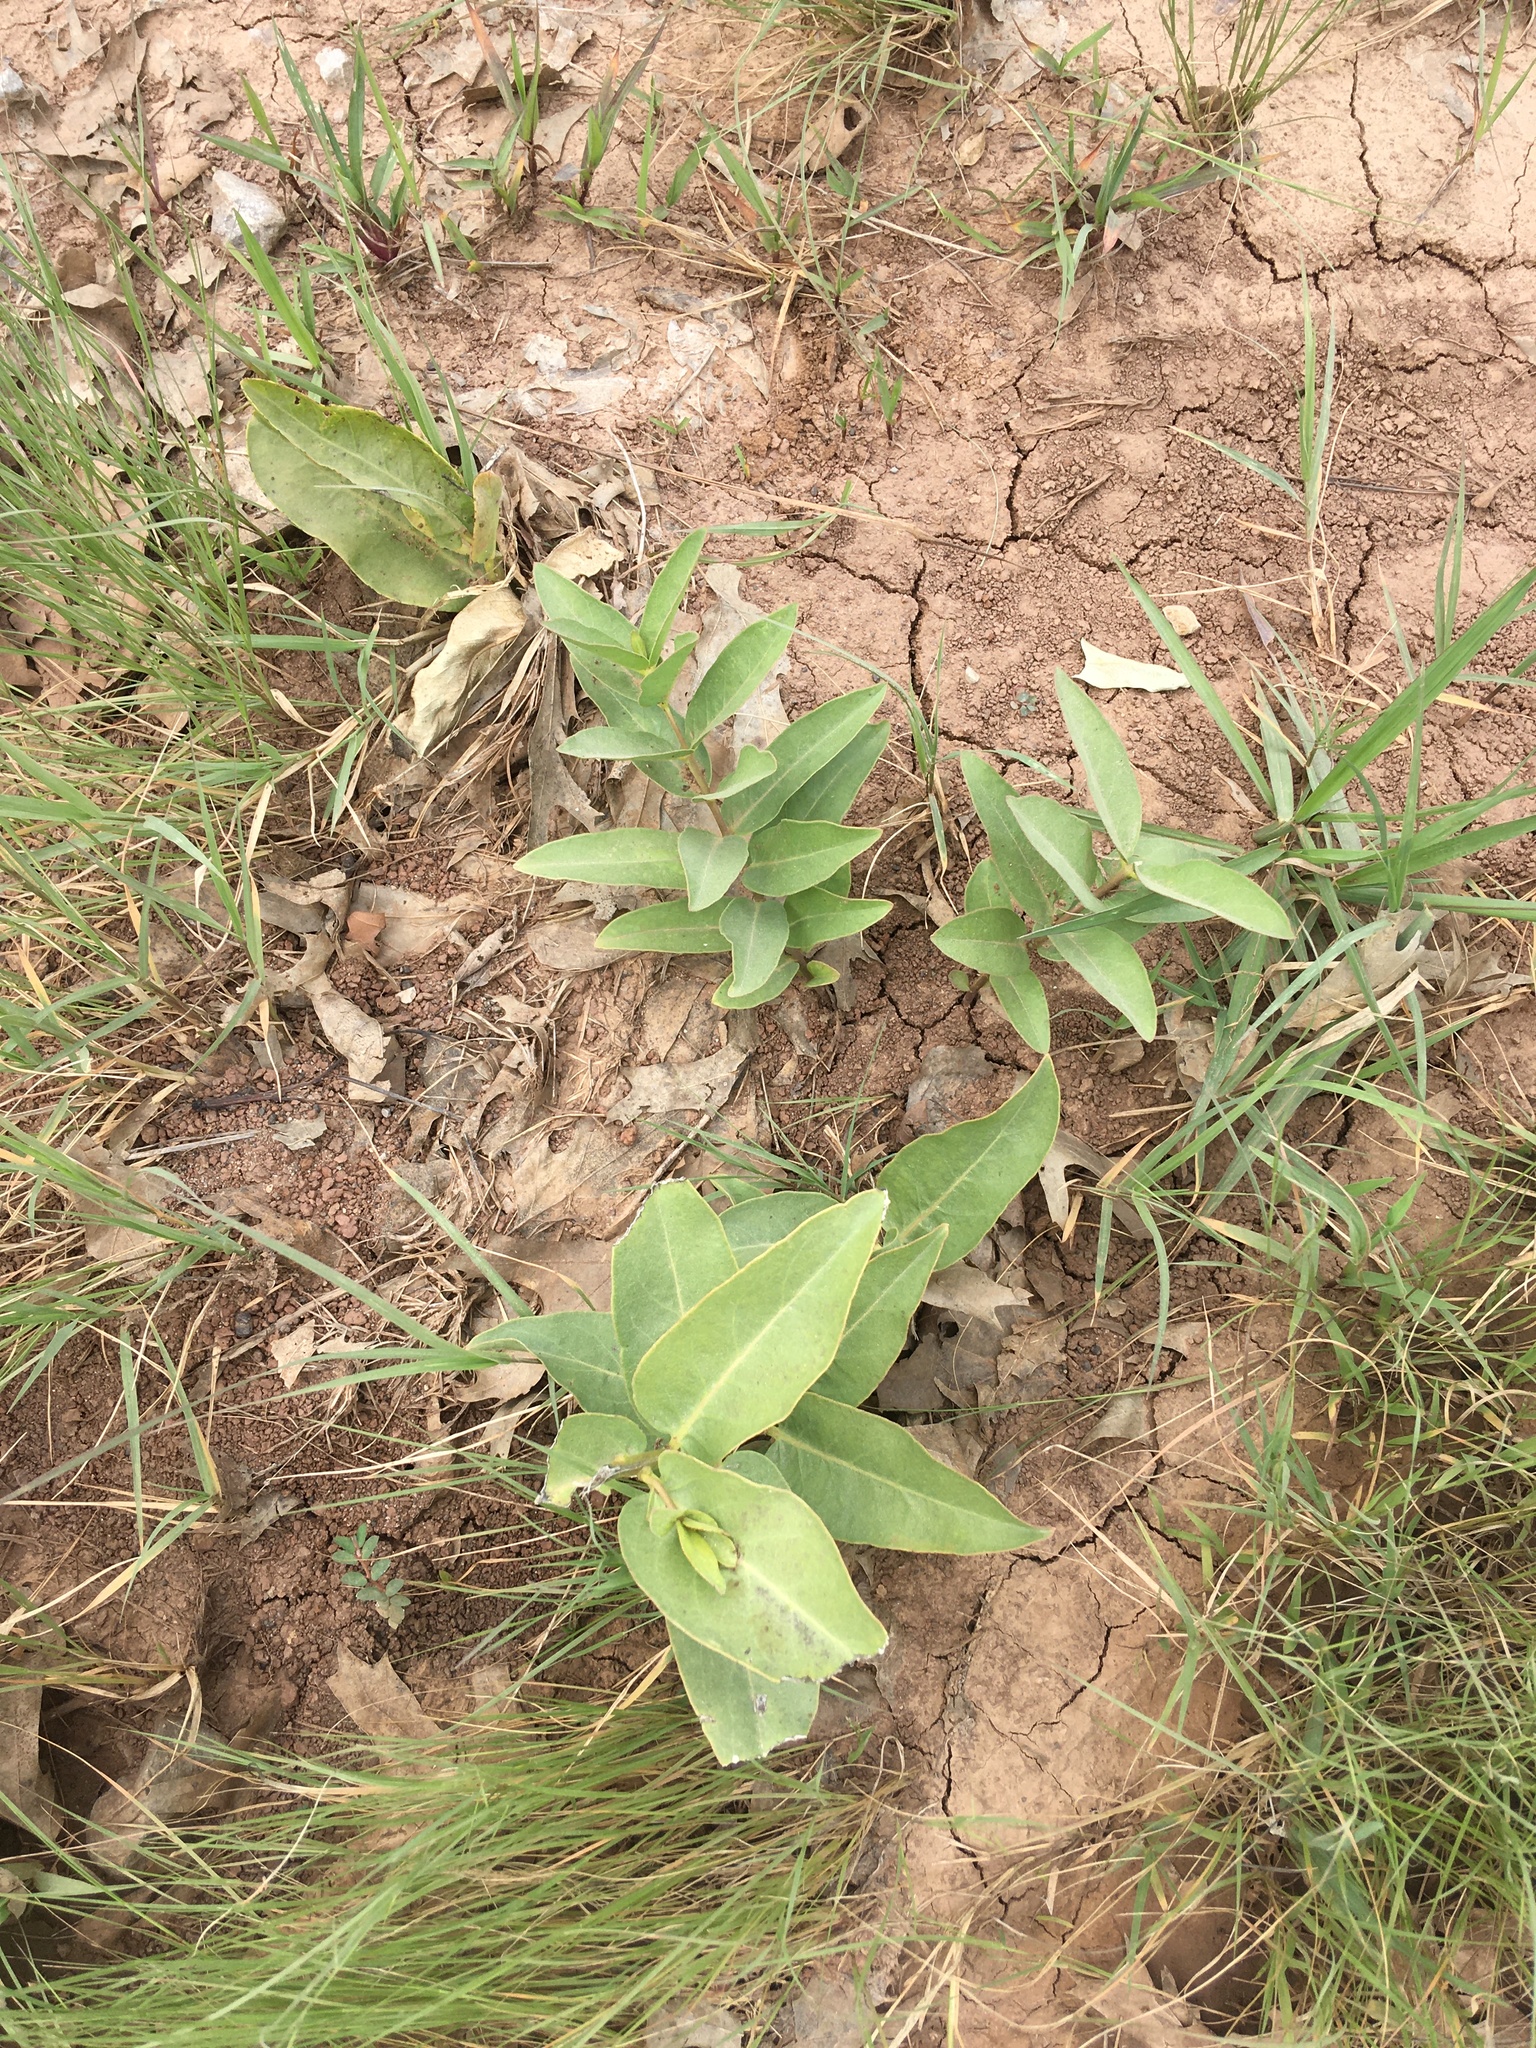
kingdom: Plantae
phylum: Tracheophyta
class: Magnoliopsida
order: Gentianales
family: Apocynaceae
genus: Asclepias
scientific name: Asclepias viridis
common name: Antelope-horns
